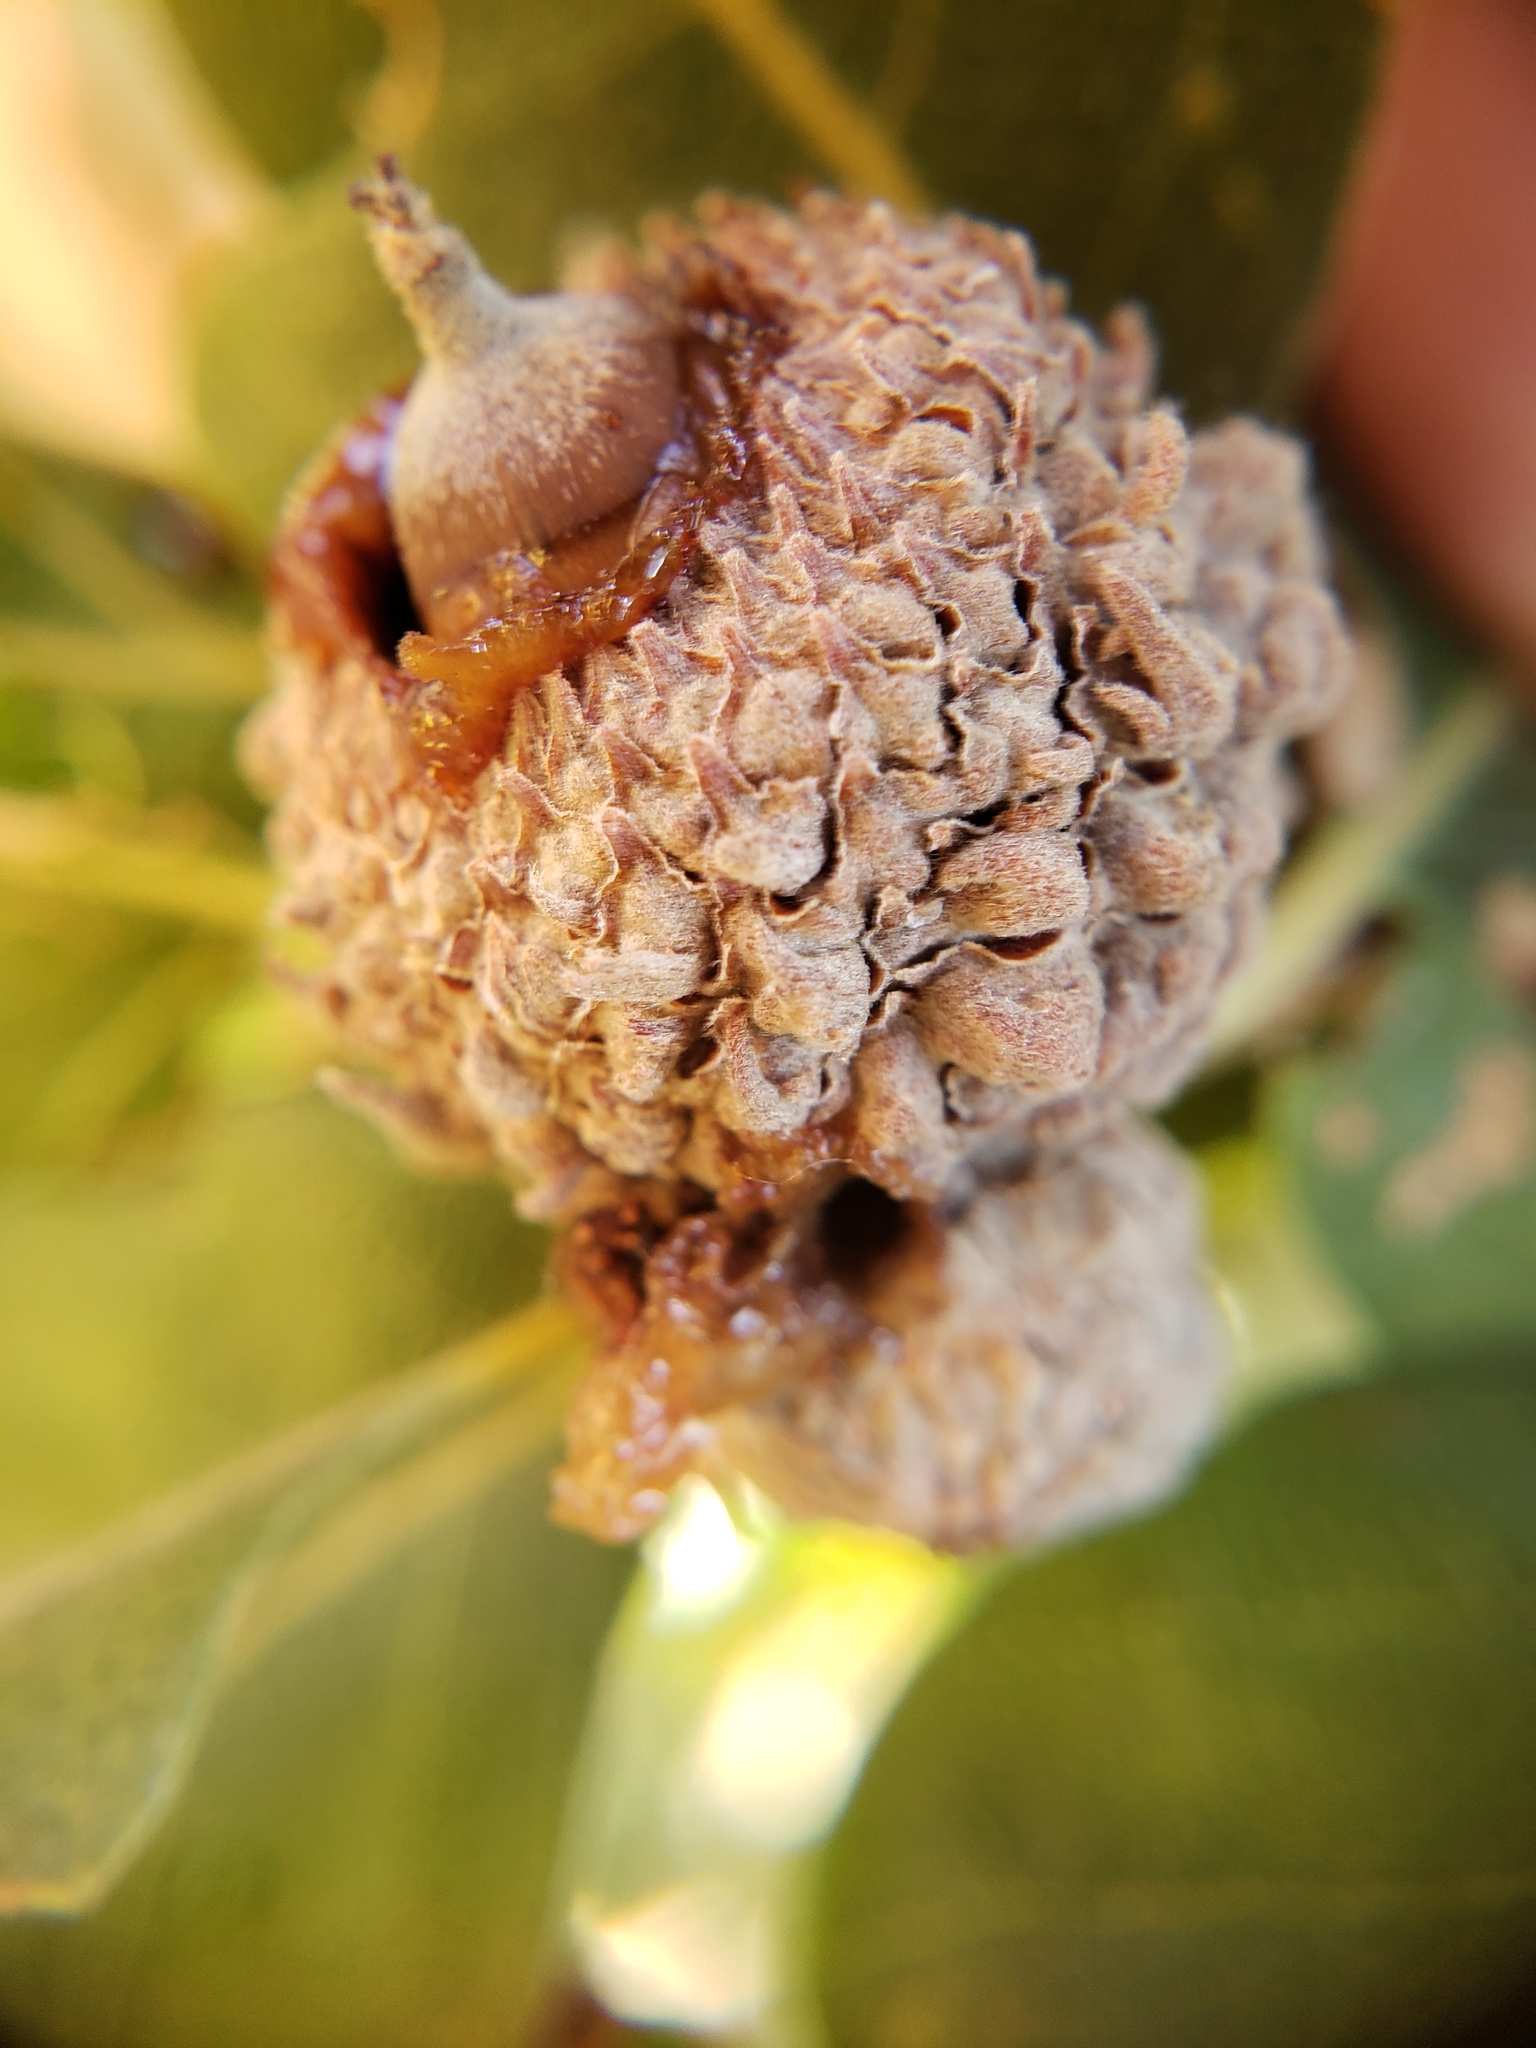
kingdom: Bacteria
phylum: Proteobacteria
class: Gammaproteobacteria
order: Enterobacterales
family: Enterobacteriaceae
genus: Lonsdalea
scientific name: Lonsdalea quercina
